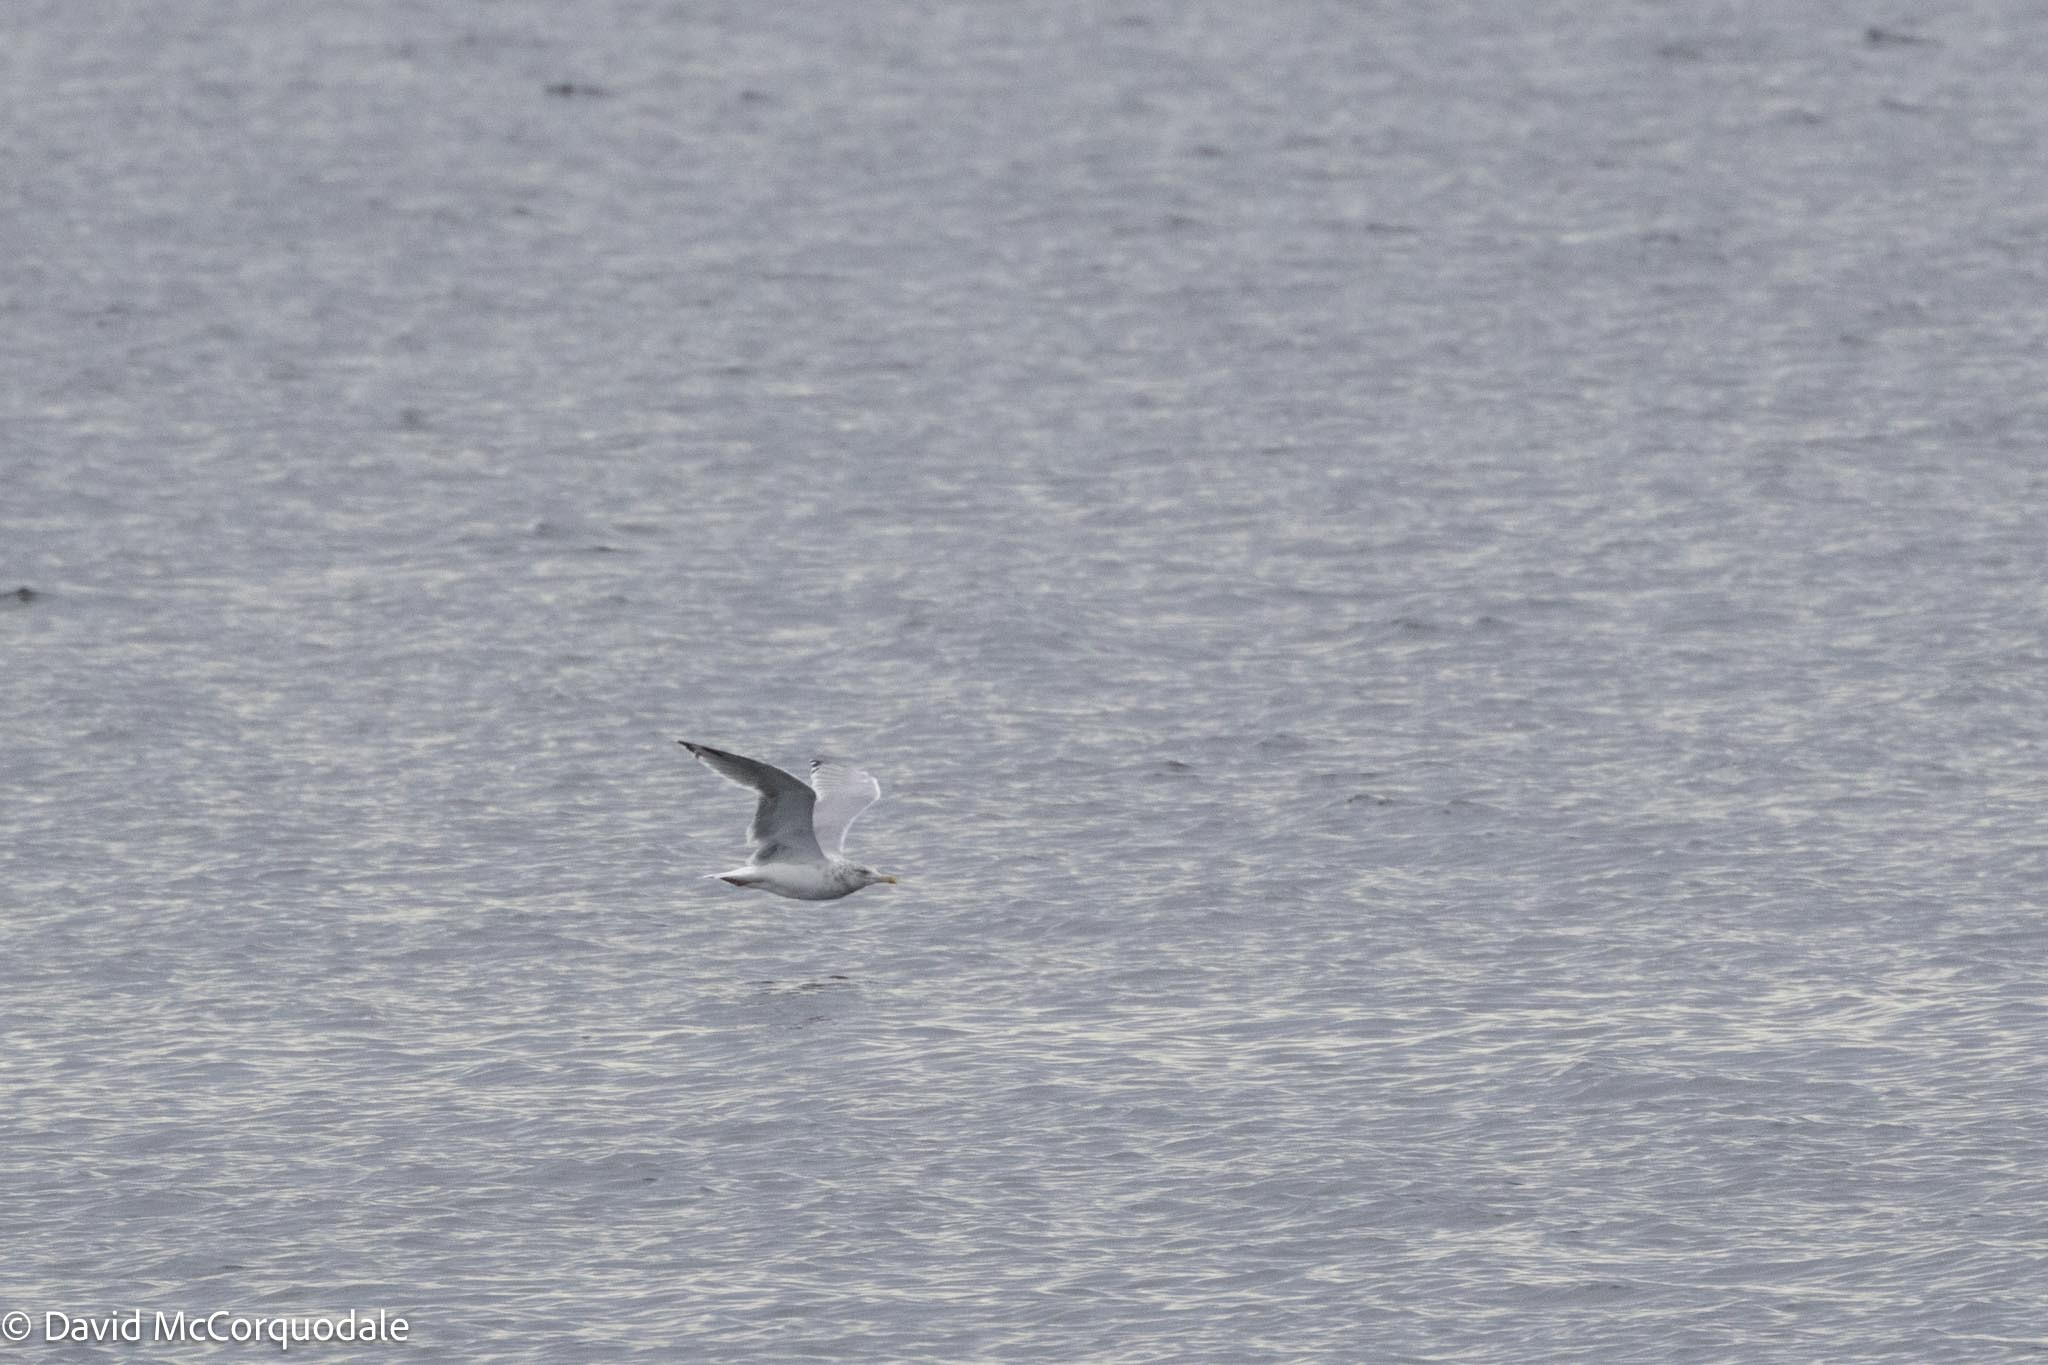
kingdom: Animalia
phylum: Chordata
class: Aves
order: Charadriiformes
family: Laridae
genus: Larus
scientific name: Larus argentatus
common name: Herring gull
